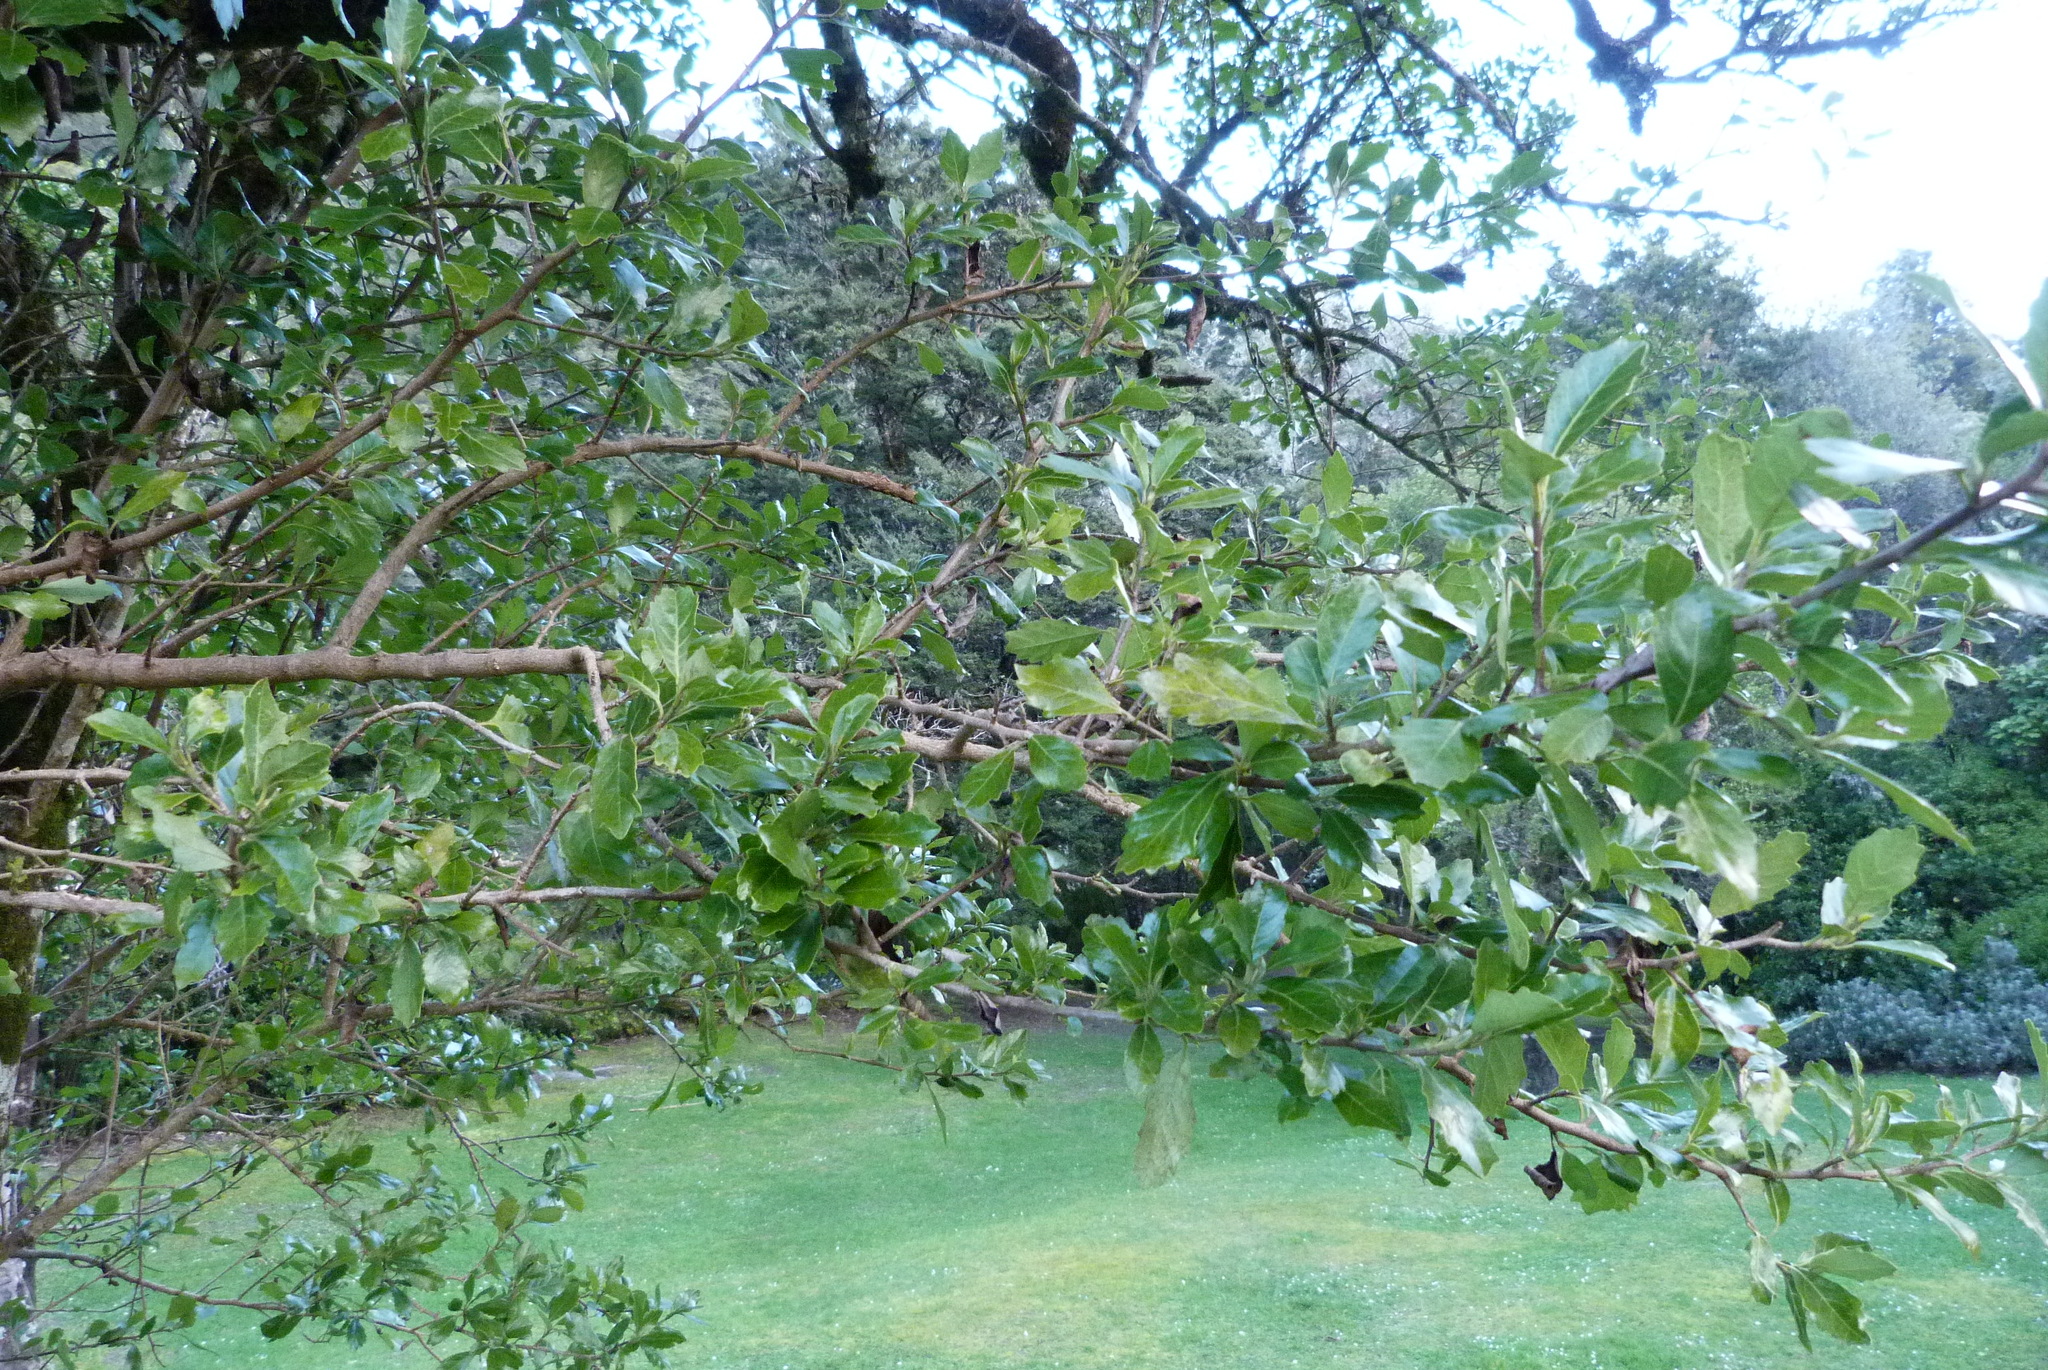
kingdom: Plantae
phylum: Tracheophyta
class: Magnoliopsida
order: Apiales
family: Pennantiaceae
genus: Pennantia
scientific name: Pennantia corymbosa
